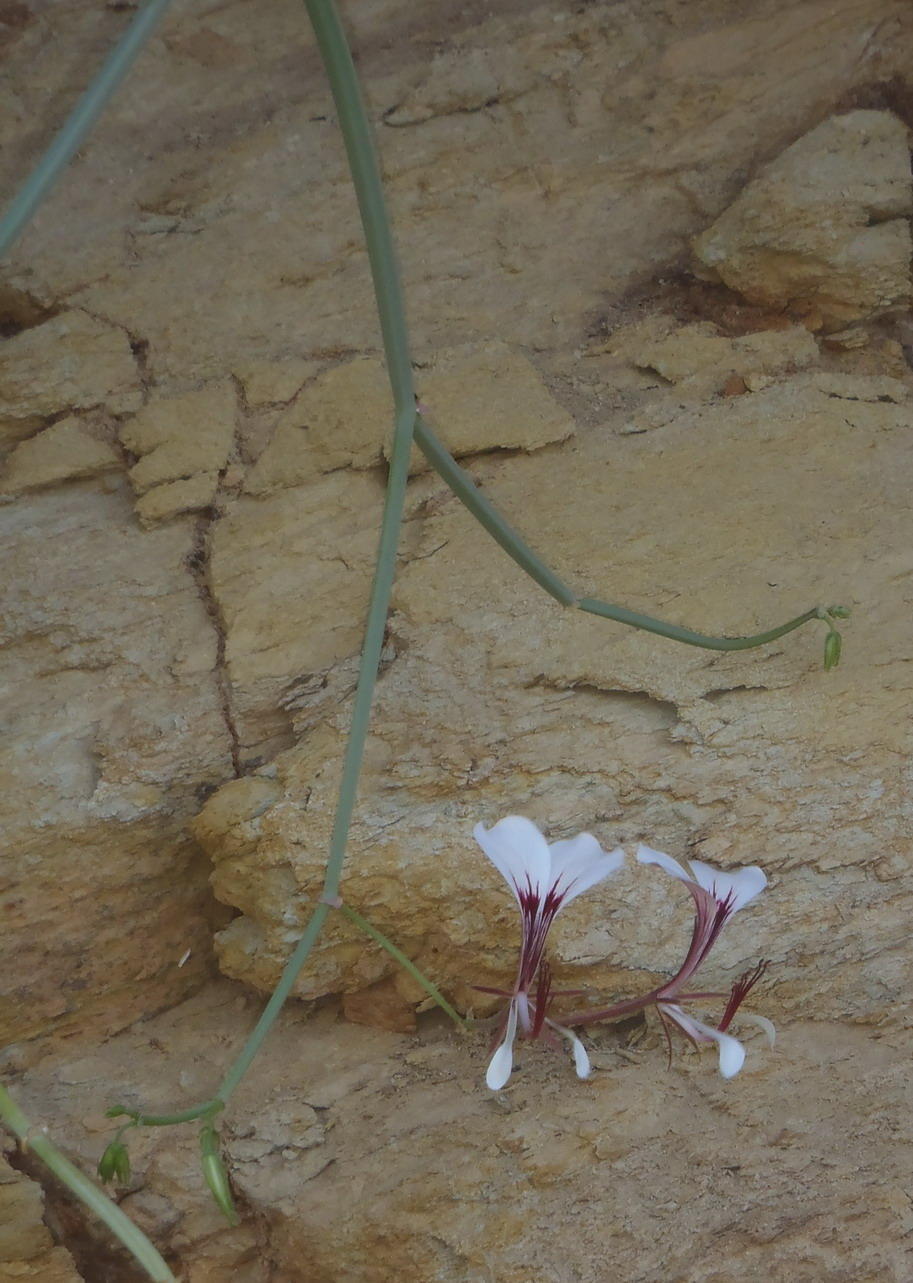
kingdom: Plantae
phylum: Tracheophyta
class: Magnoliopsida
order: Geraniales
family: Geraniaceae
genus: Pelargonium
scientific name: Pelargonium tetragonum
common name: Square-stack crane's-bill
